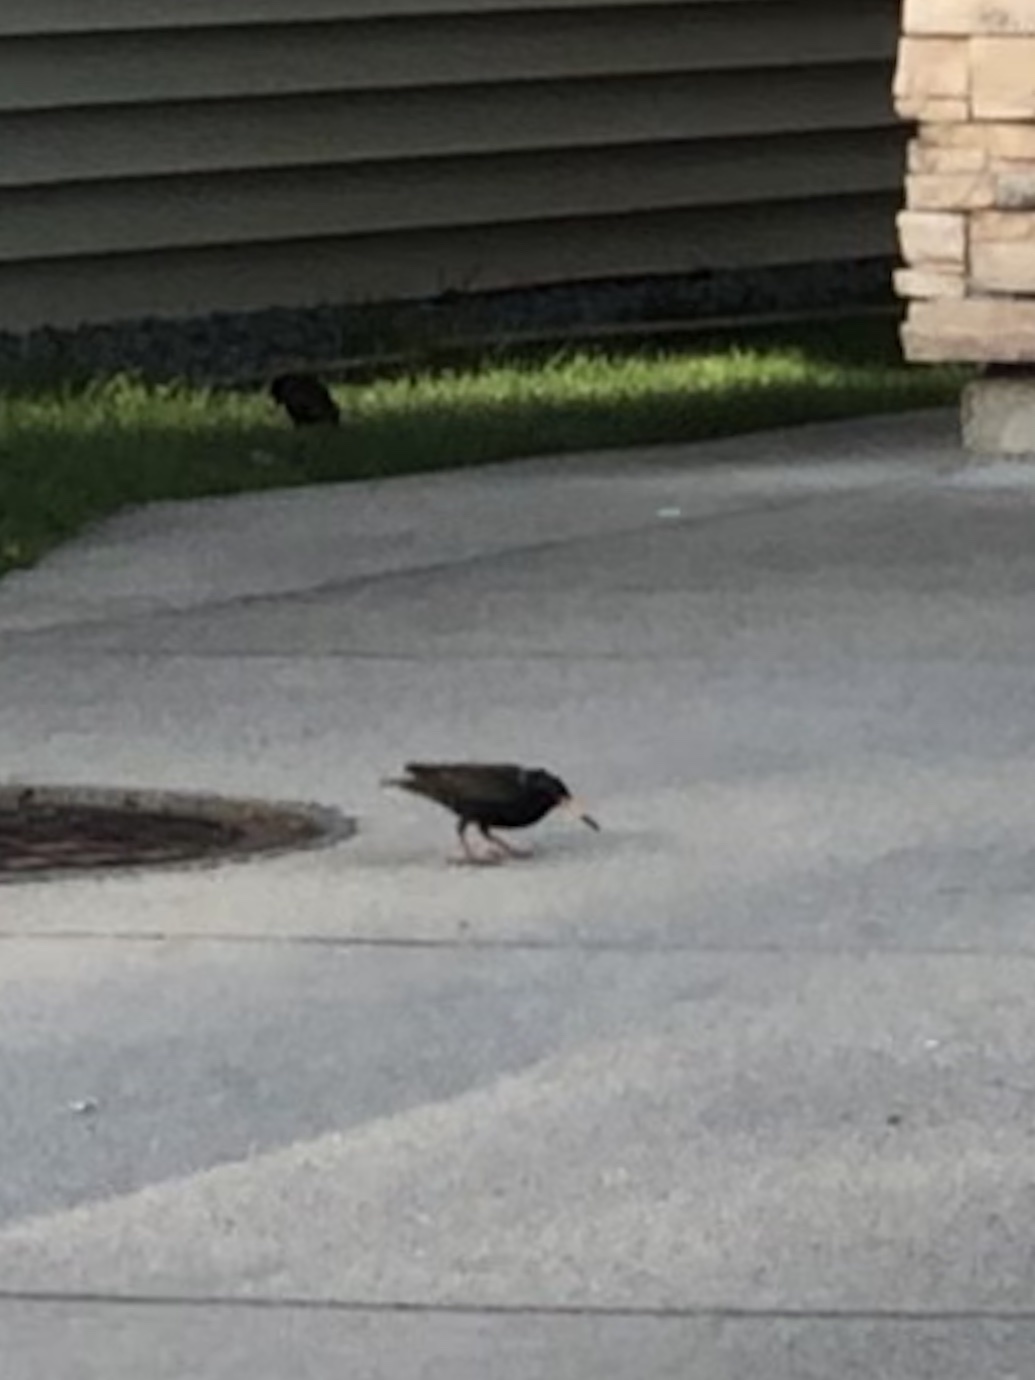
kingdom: Animalia
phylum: Chordata
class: Aves
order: Passeriformes
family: Sturnidae
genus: Sturnus
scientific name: Sturnus vulgaris
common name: Common starling
